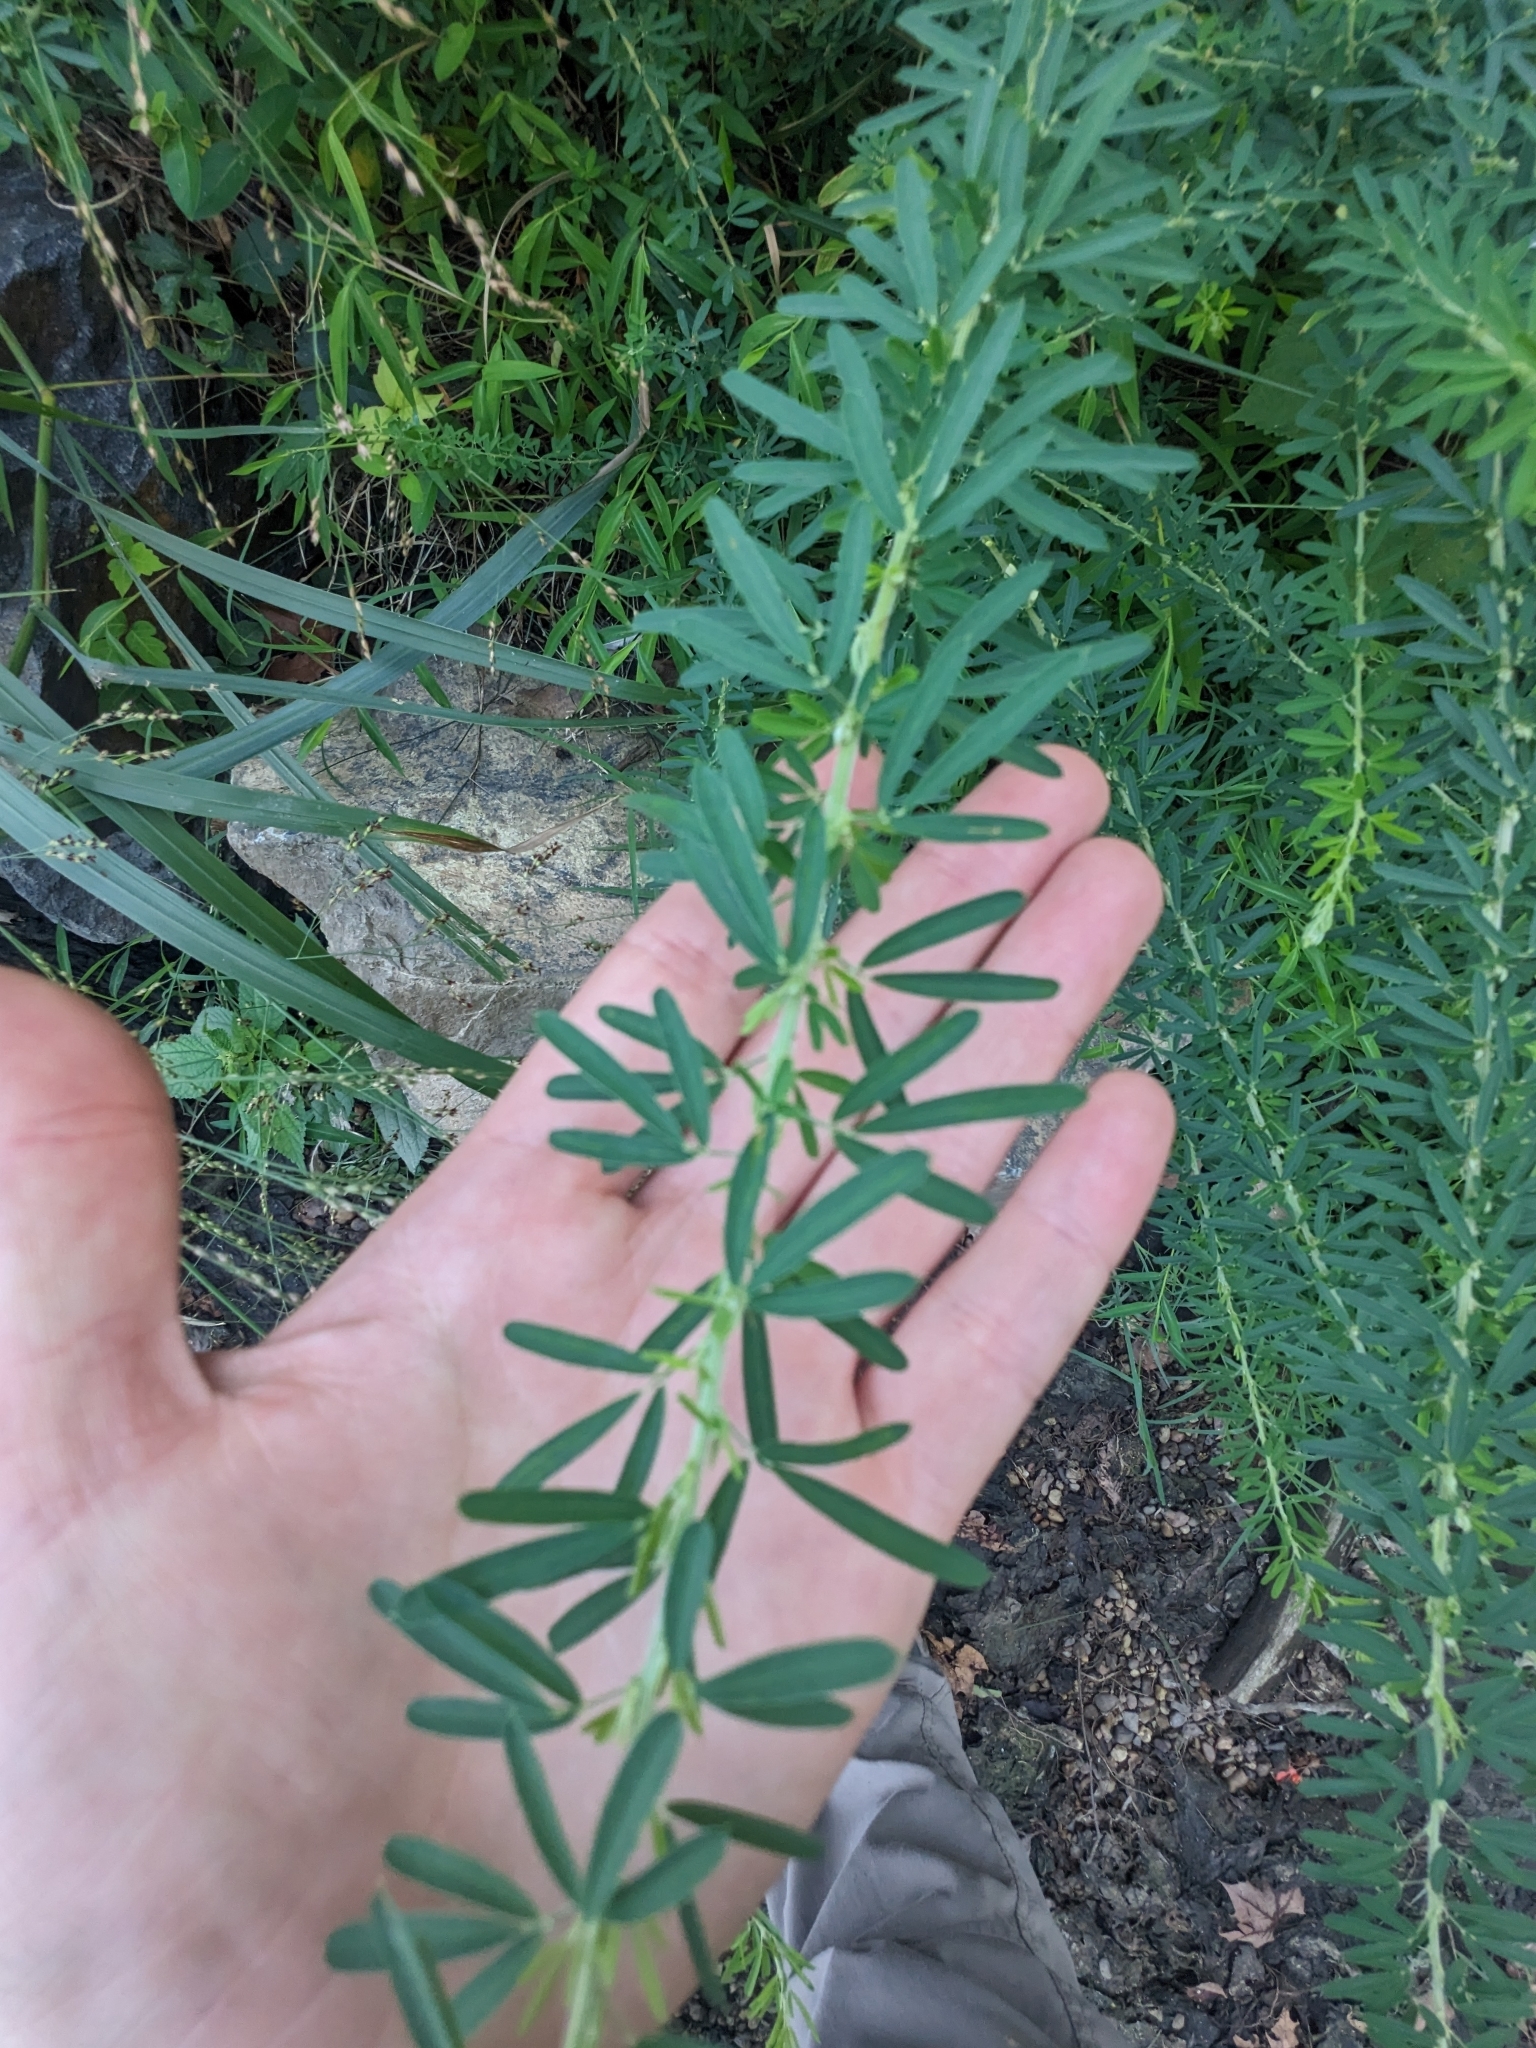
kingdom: Plantae
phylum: Tracheophyta
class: Magnoliopsida
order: Fabales
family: Fabaceae
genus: Lespedeza
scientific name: Lespedeza cuneata
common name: Chinese bush-clover
